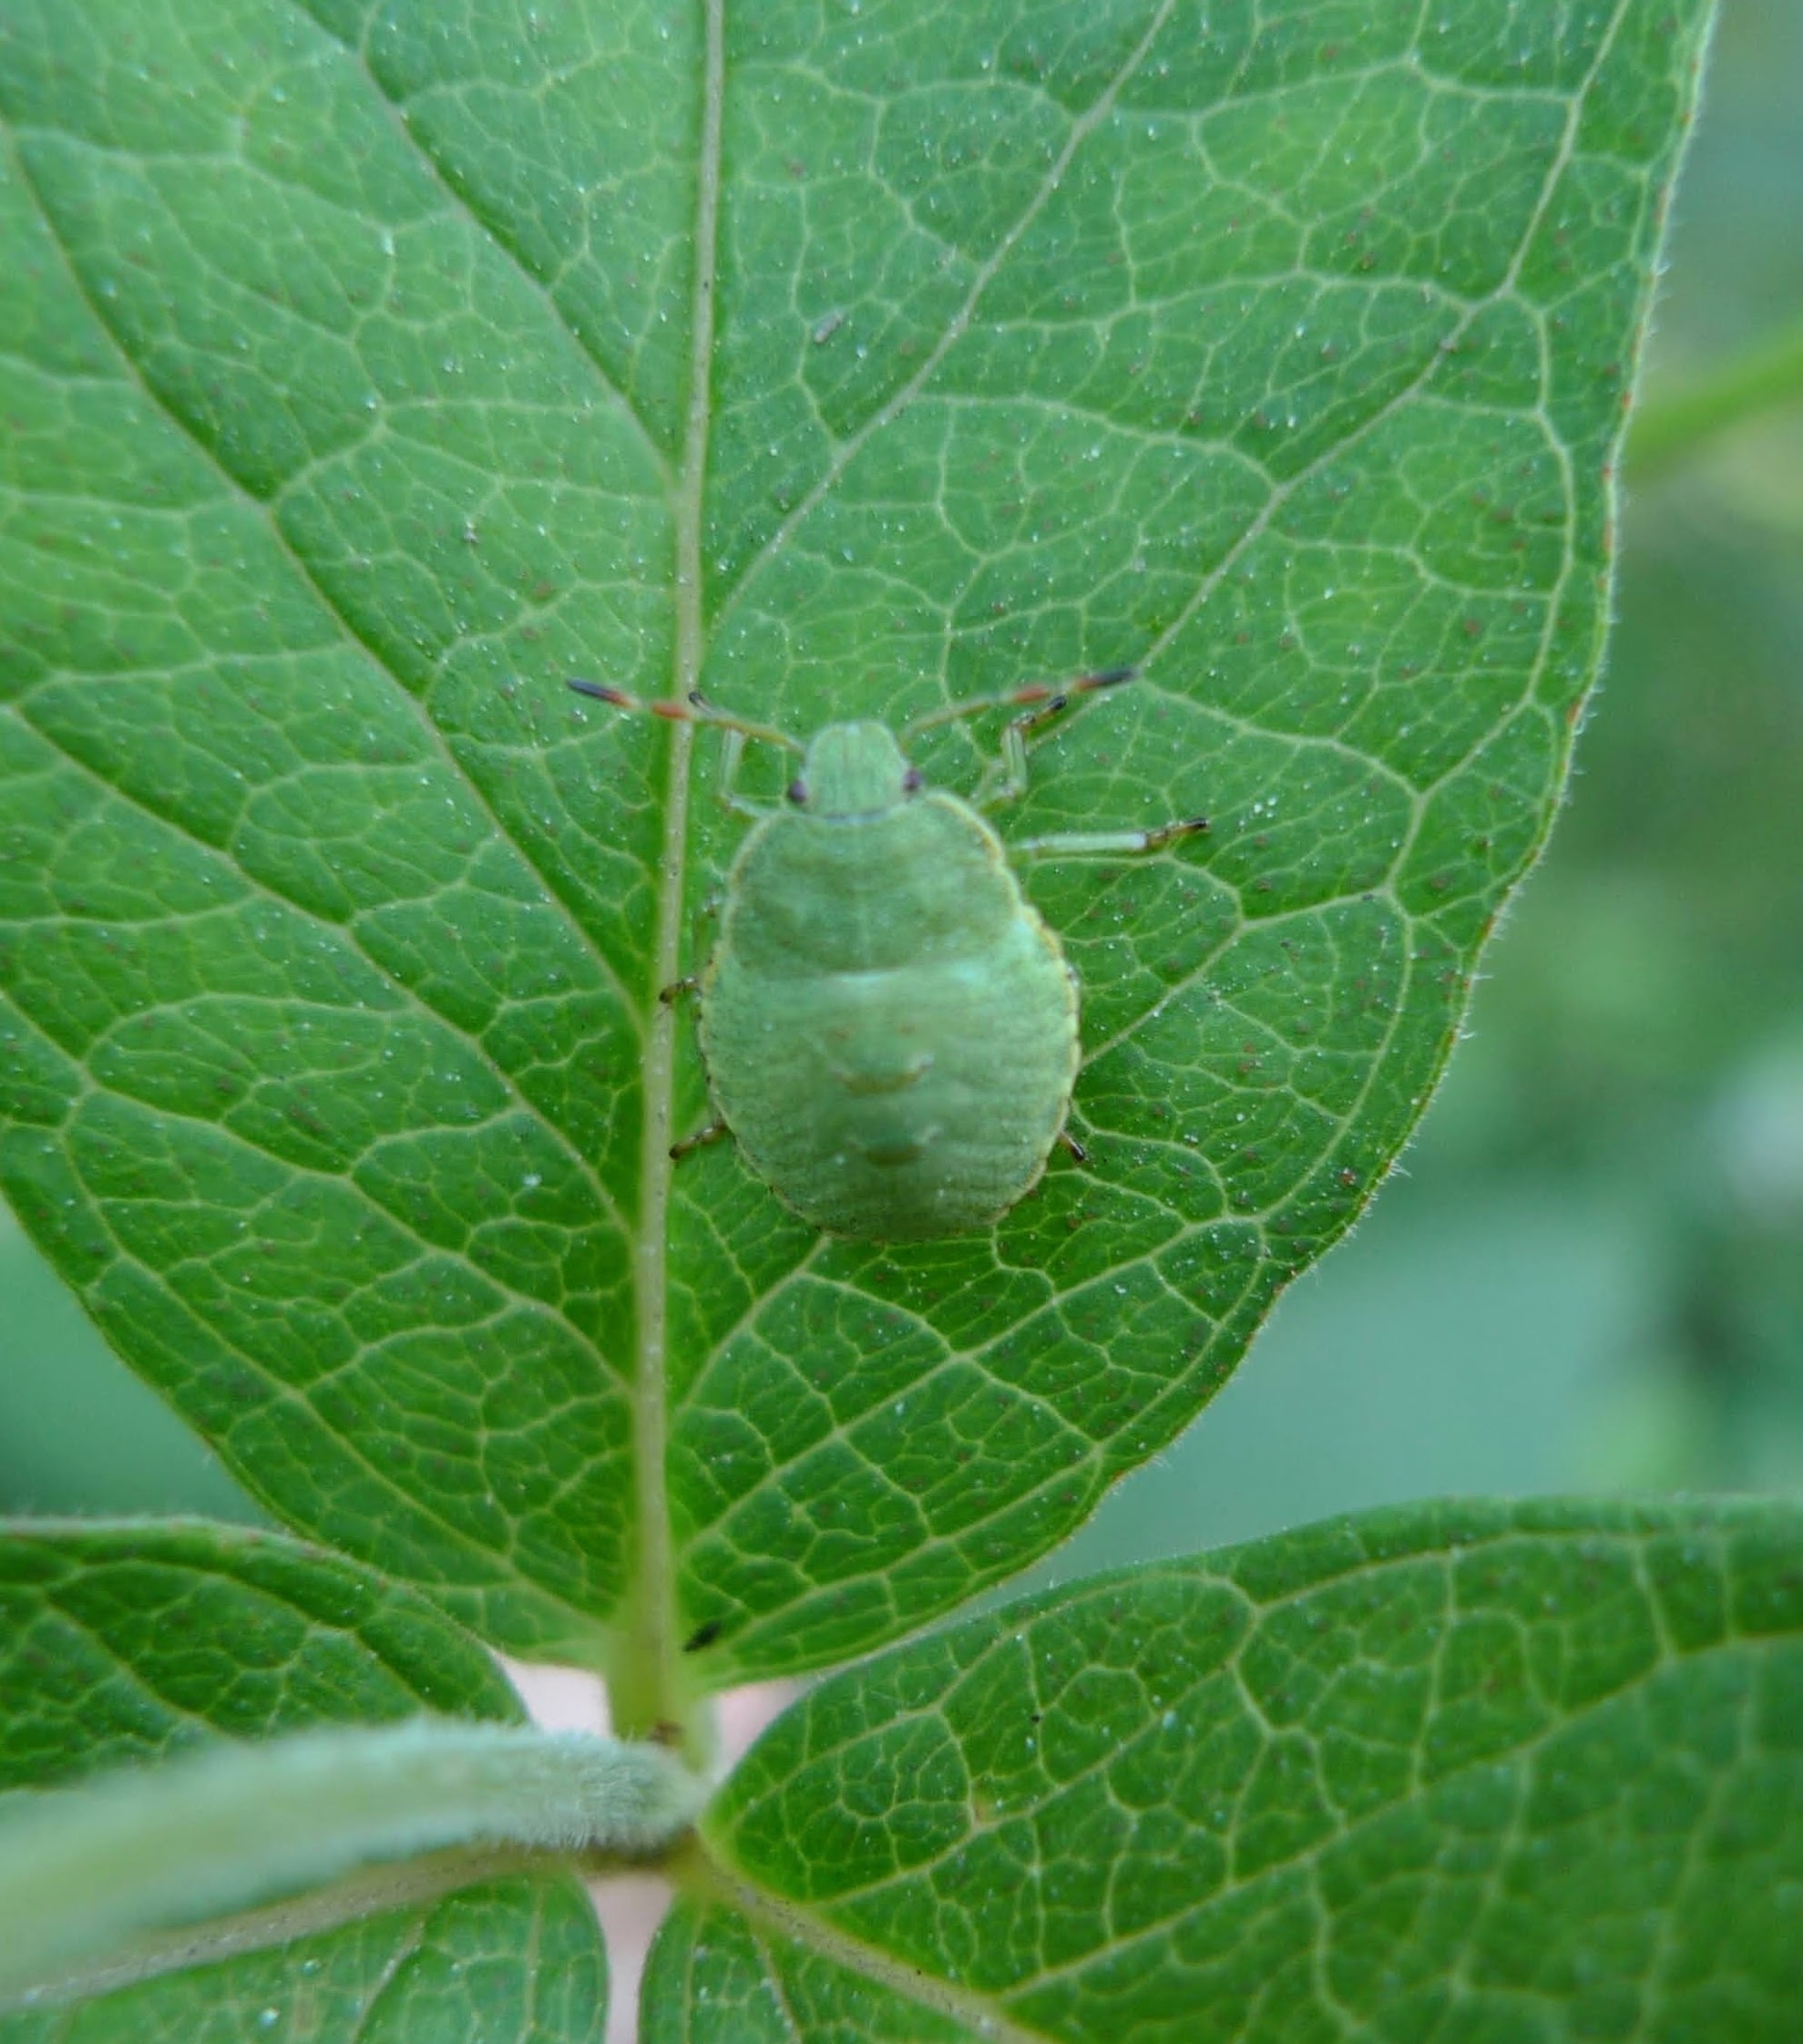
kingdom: Animalia
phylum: Arthropoda
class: Insecta
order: Hemiptera
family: Pentatomidae
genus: Palomena
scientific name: Palomena prasina
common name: Green shieldbug
